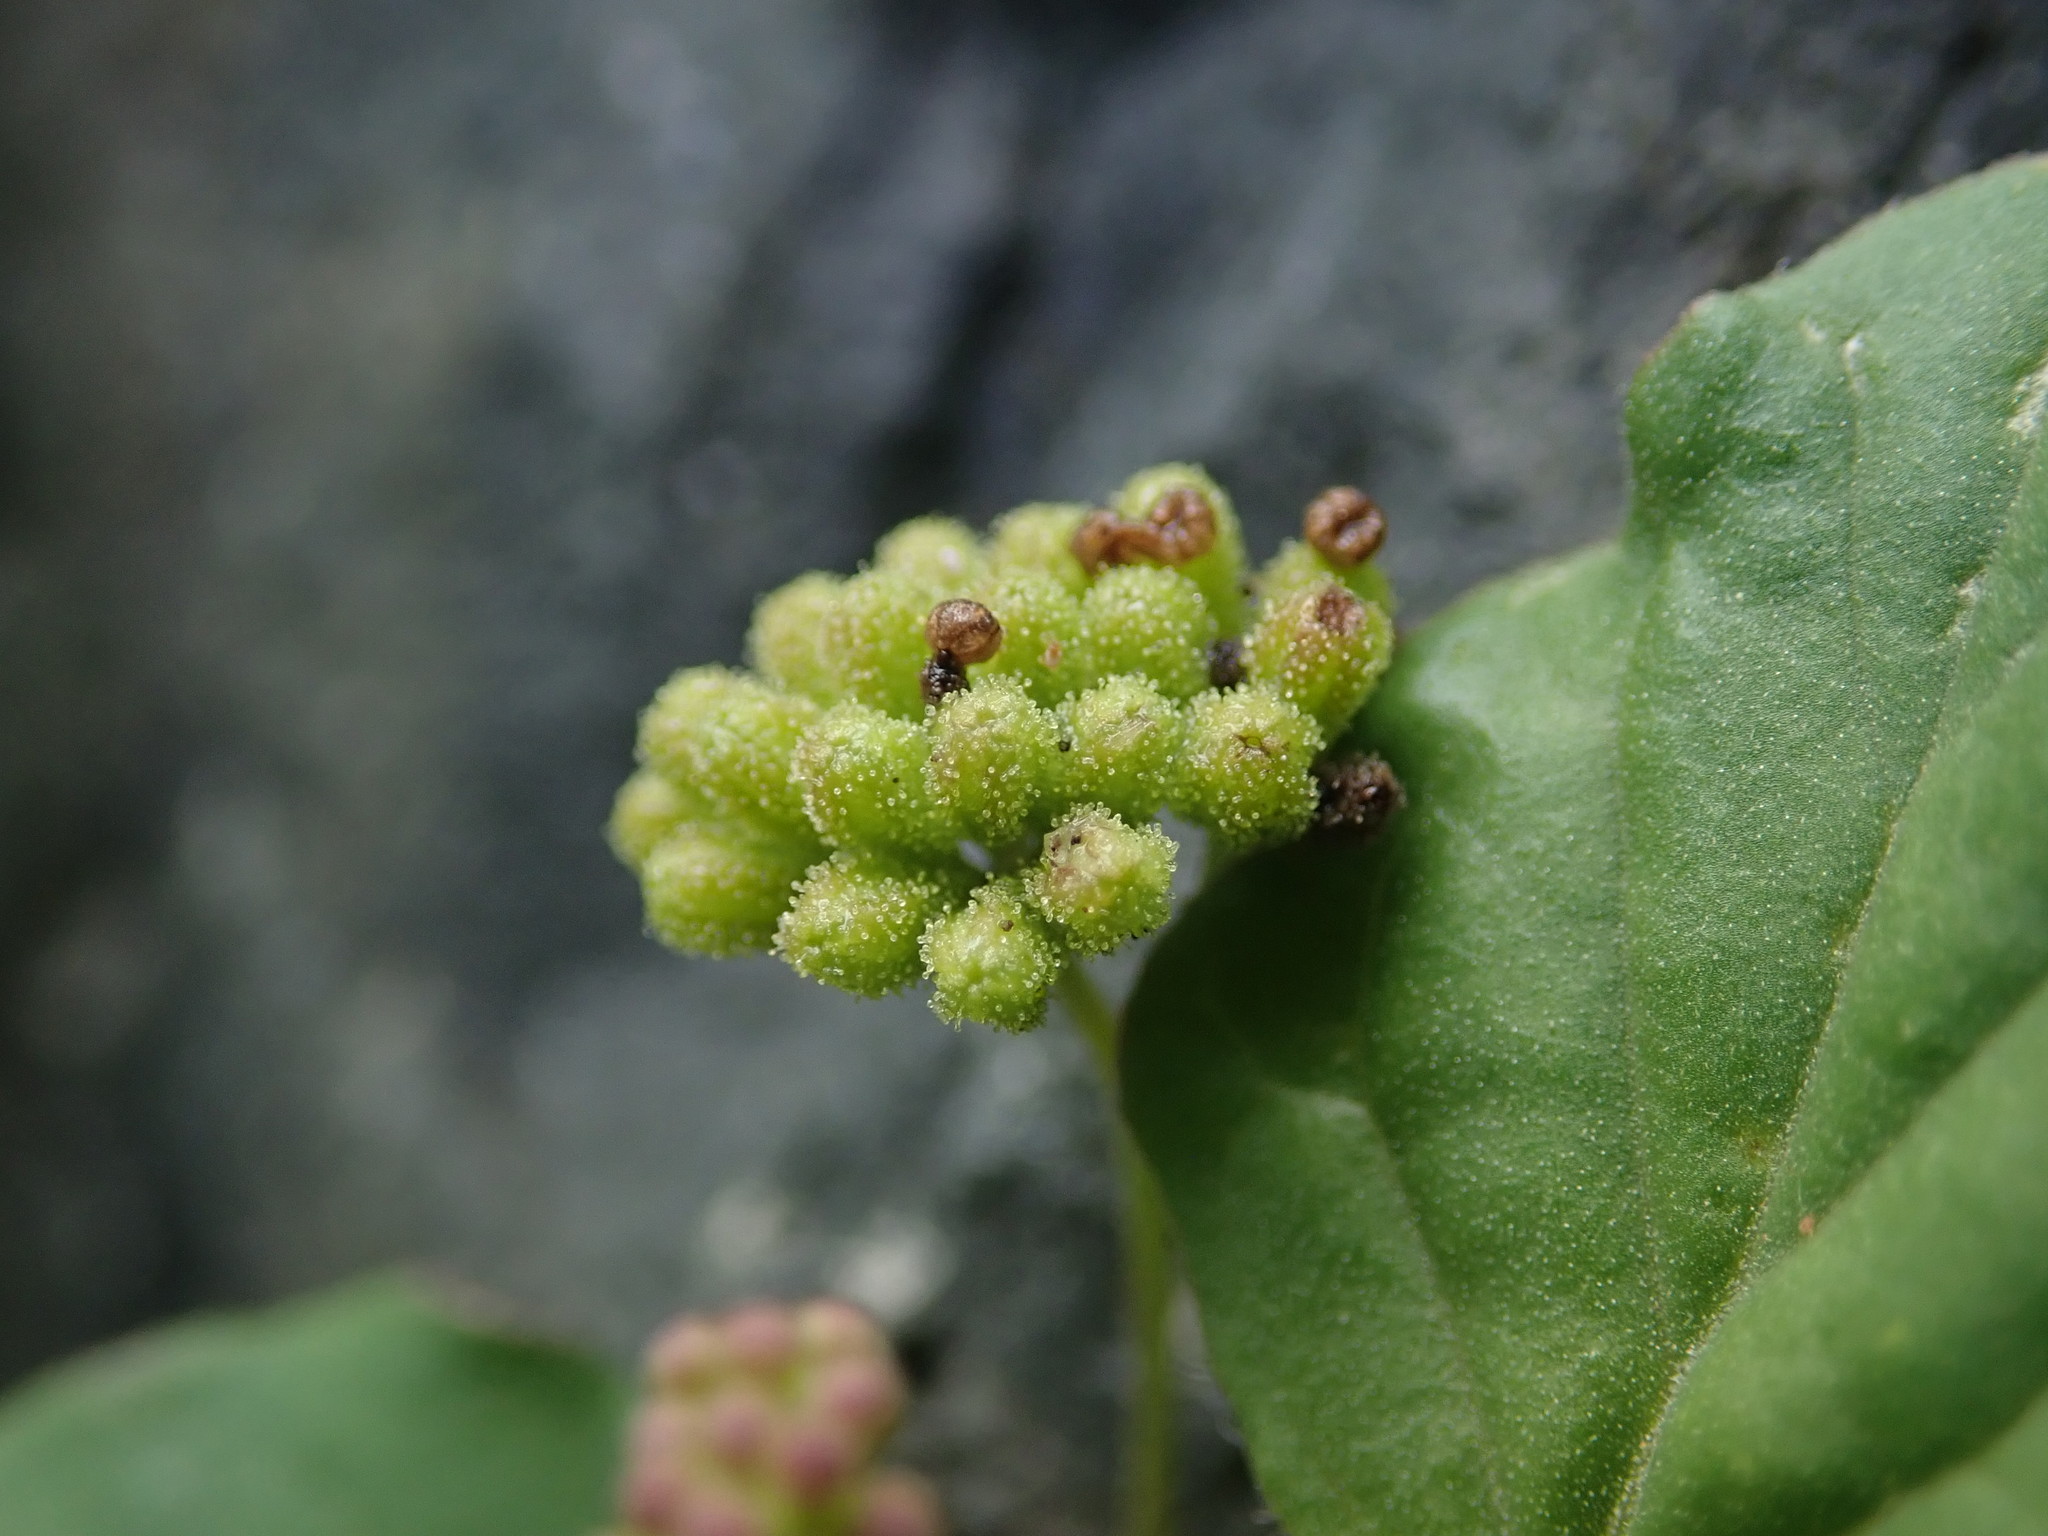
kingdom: Plantae
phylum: Tracheophyta
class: Magnoliopsida
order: Caryophyllales
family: Nyctaginaceae
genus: Boerhavia
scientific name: Boerhavia coccinea
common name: Scarlet spiderling
